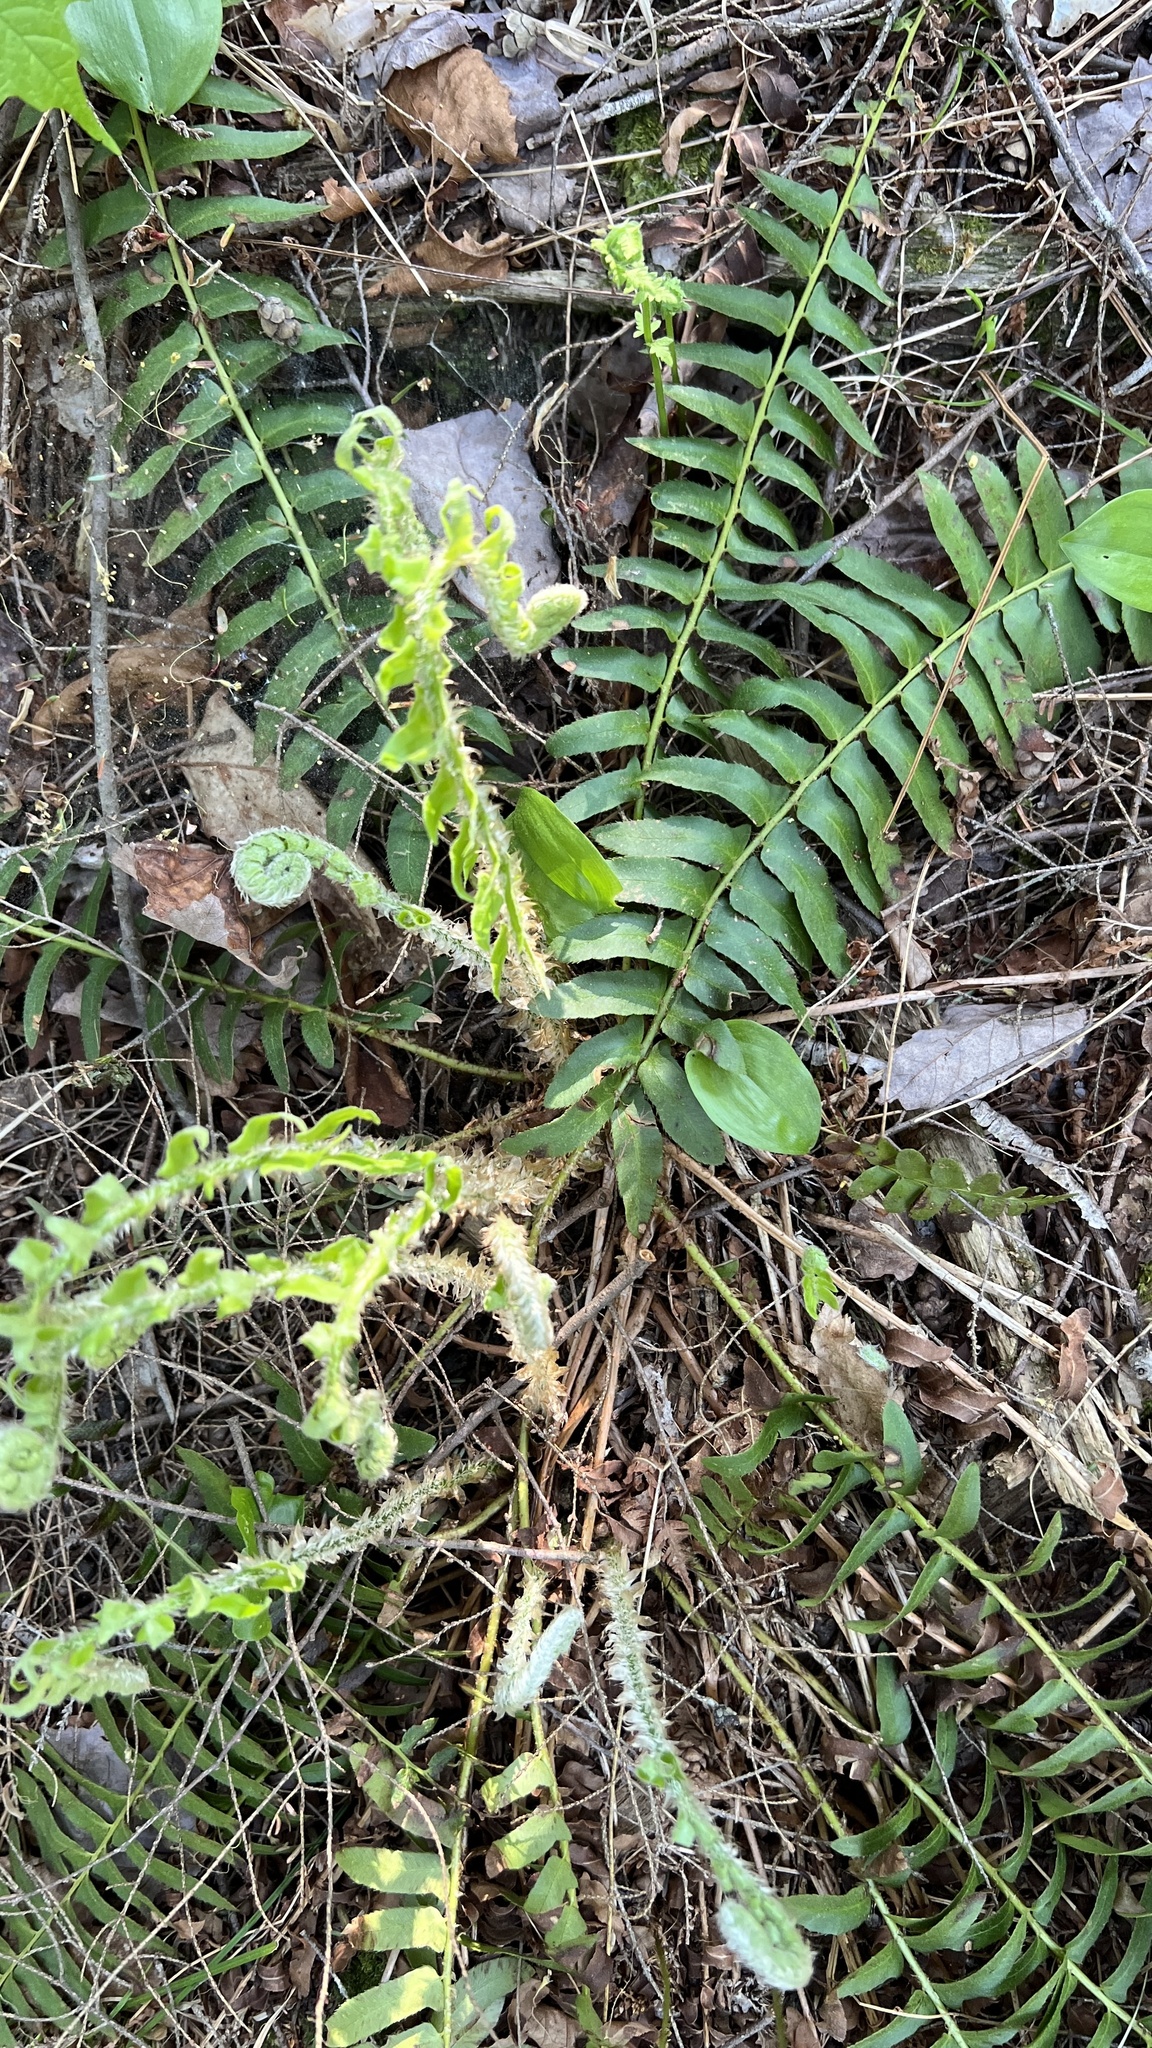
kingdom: Plantae
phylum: Tracheophyta
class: Polypodiopsida
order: Polypodiales
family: Dryopteridaceae
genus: Polystichum
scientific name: Polystichum acrostichoides
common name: Christmas fern
